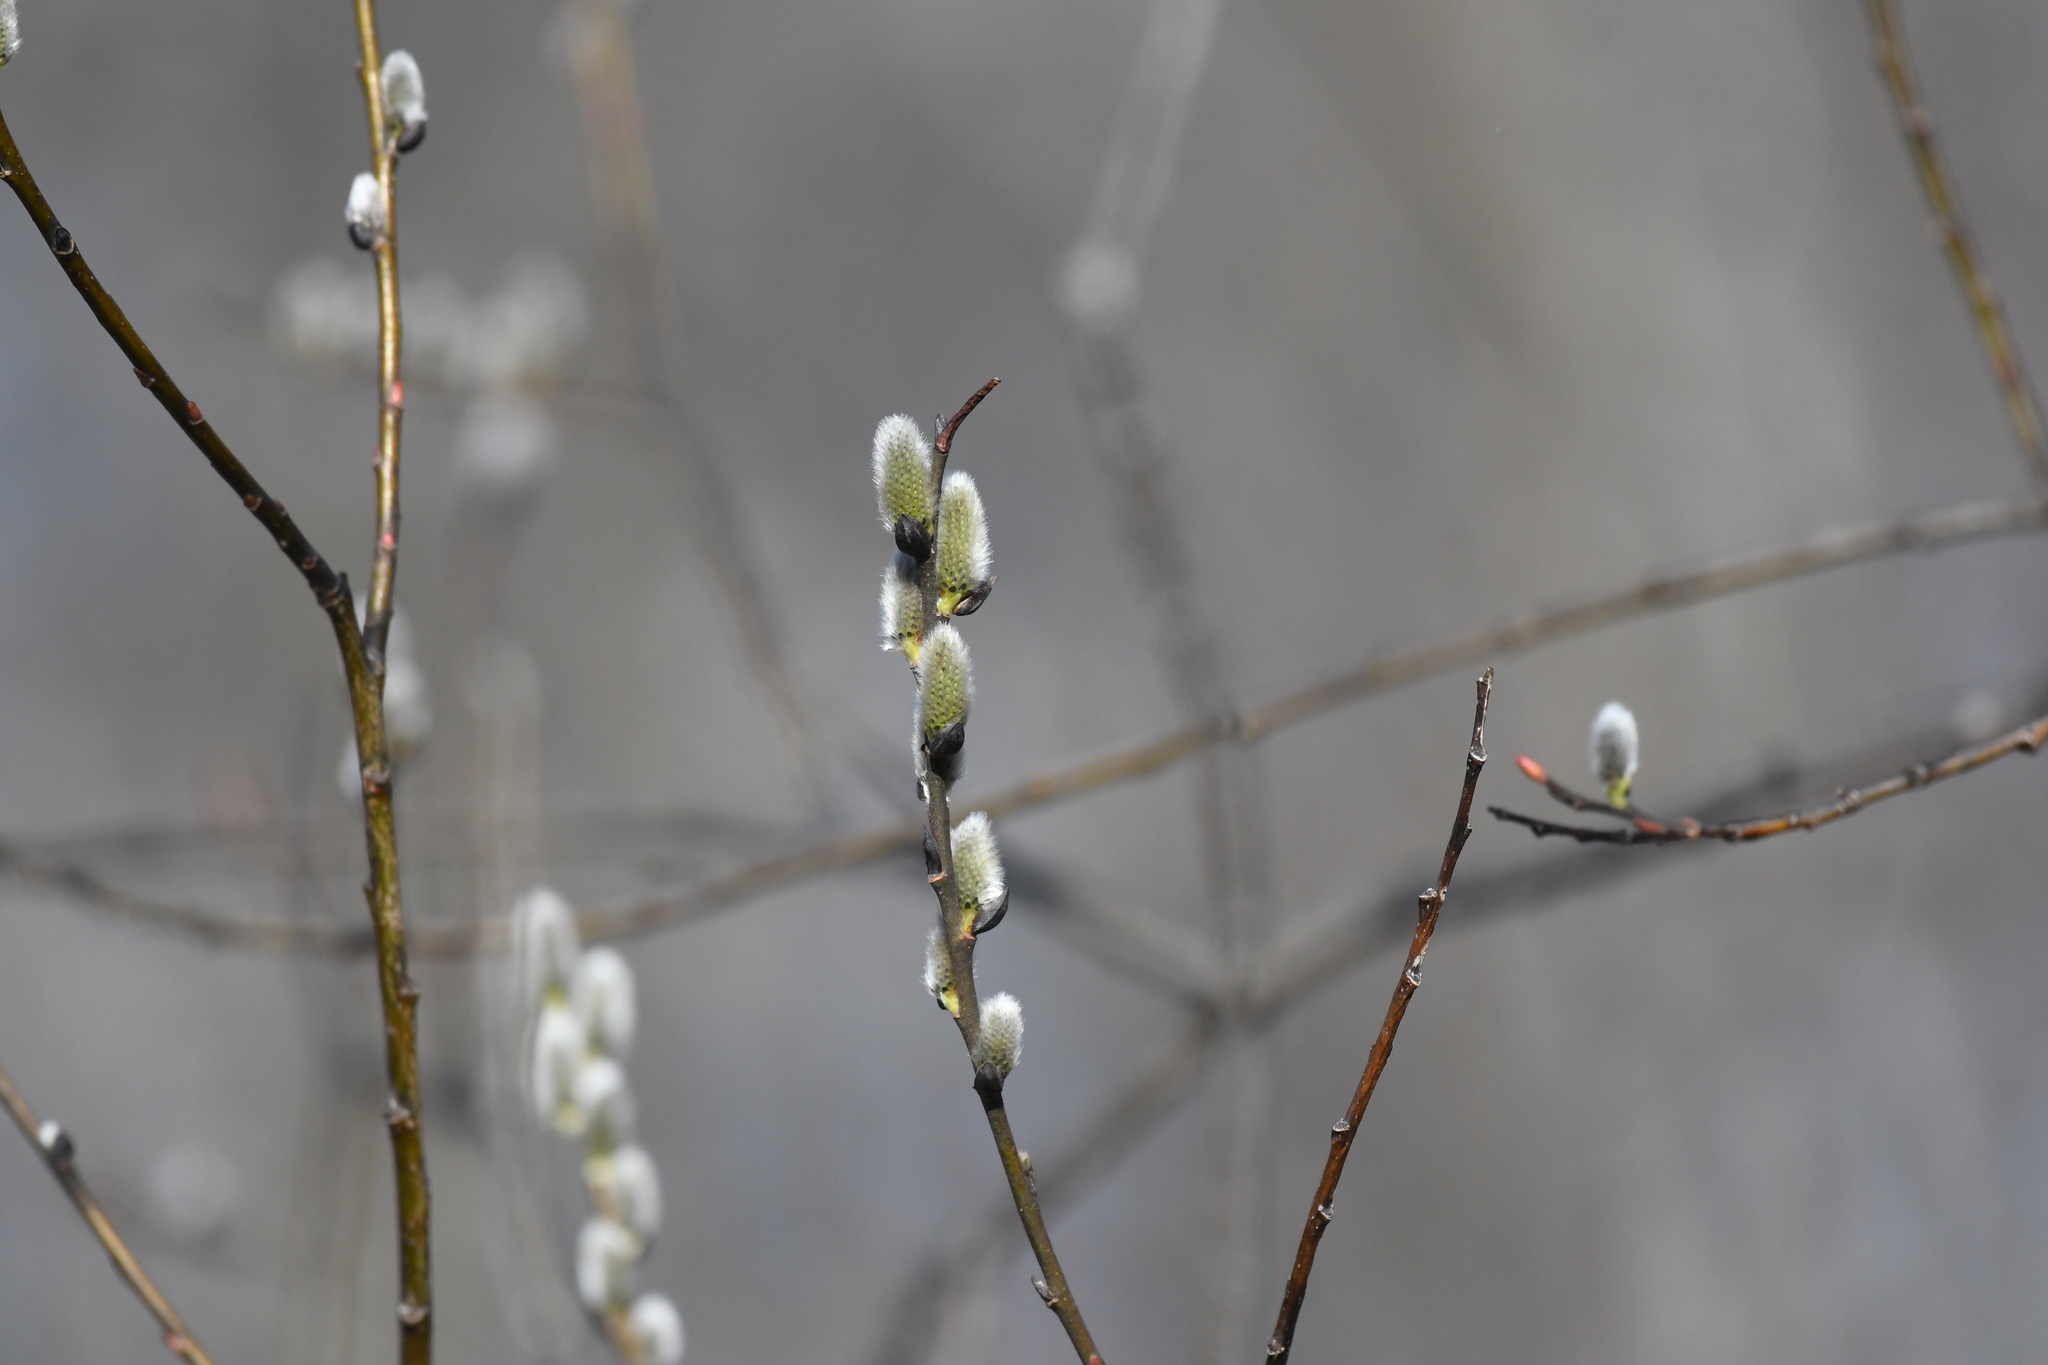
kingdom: Plantae
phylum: Tracheophyta
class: Magnoliopsida
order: Malpighiales
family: Salicaceae
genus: Salix
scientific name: Salix discolor
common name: Glaucous willow
